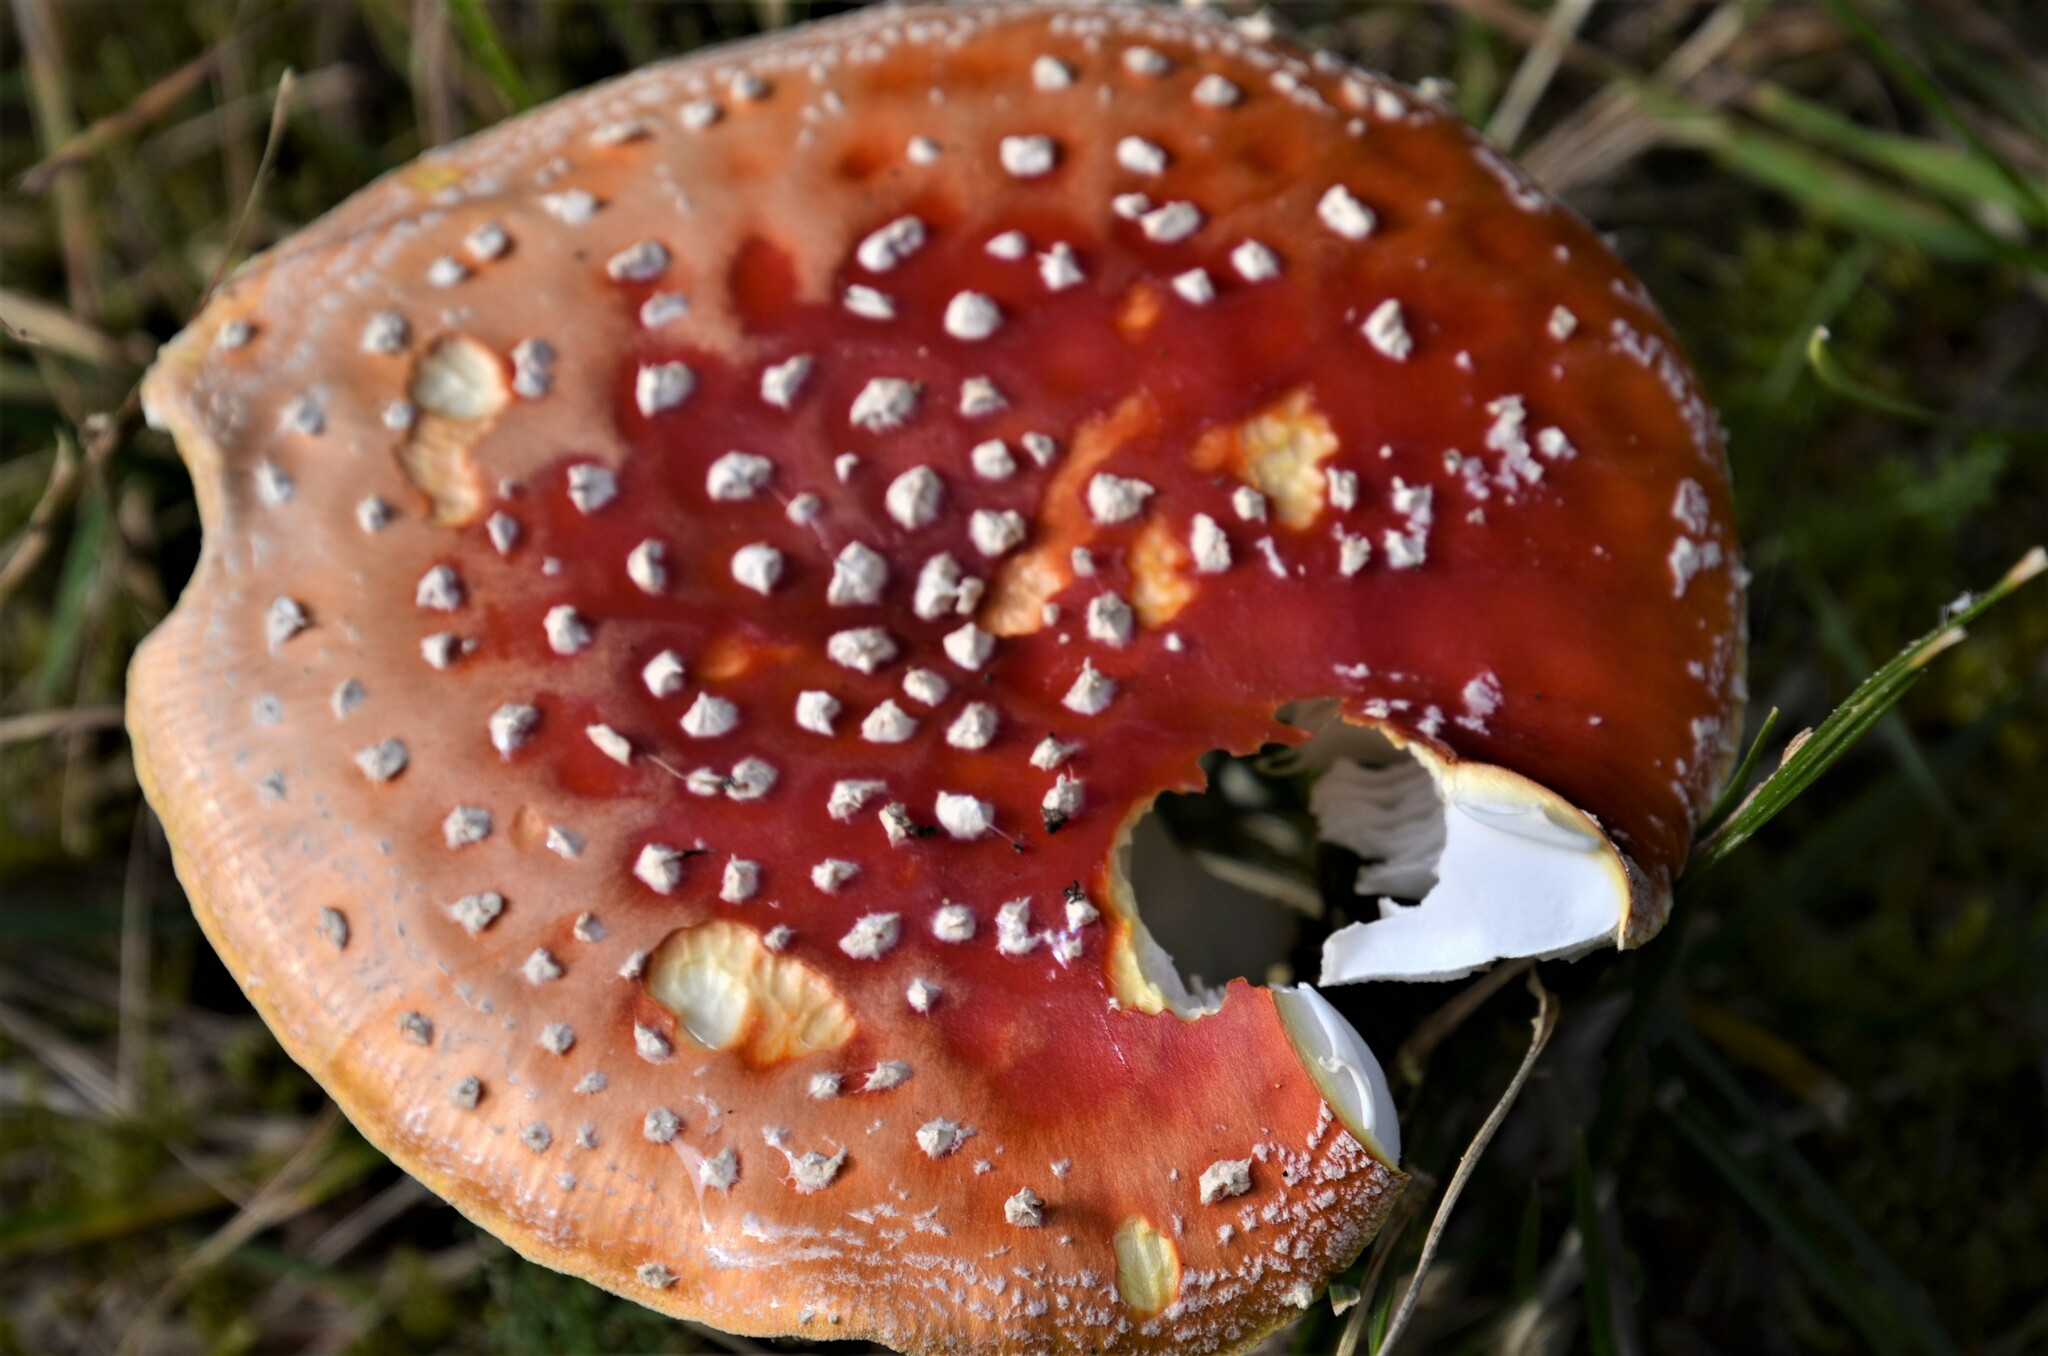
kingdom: Fungi
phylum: Basidiomycota
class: Agaricomycetes
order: Agaricales
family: Amanitaceae
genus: Amanita
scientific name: Amanita muscaria
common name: Fly agaric
